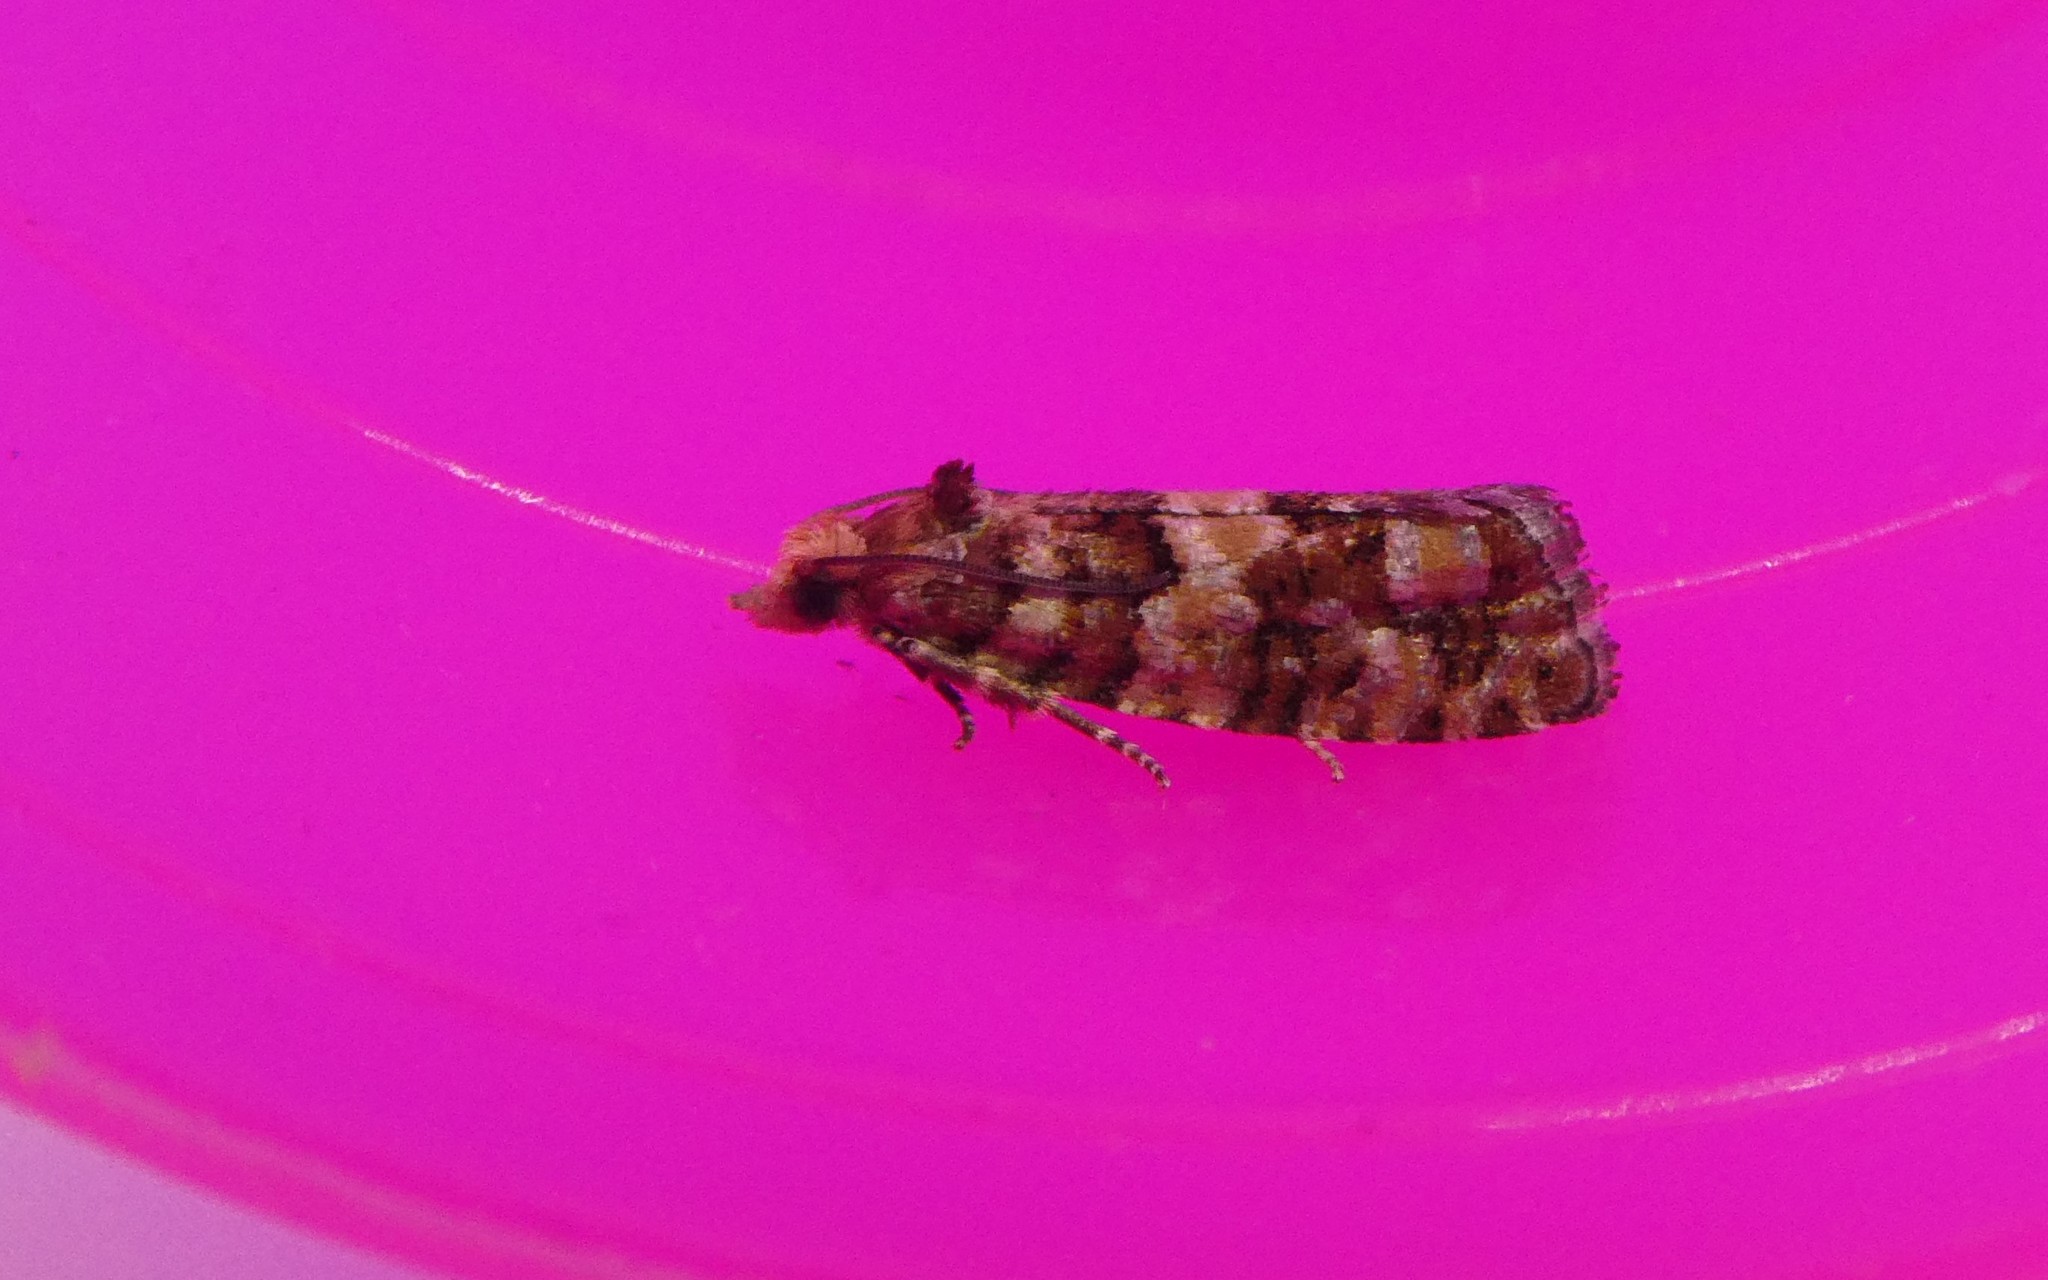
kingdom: Animalia
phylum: Arthropoda
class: Insecta
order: Lepidoptera
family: Tortricidae
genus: Eucopina
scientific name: Eucopina tocullionana
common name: White pinecone borer moth
